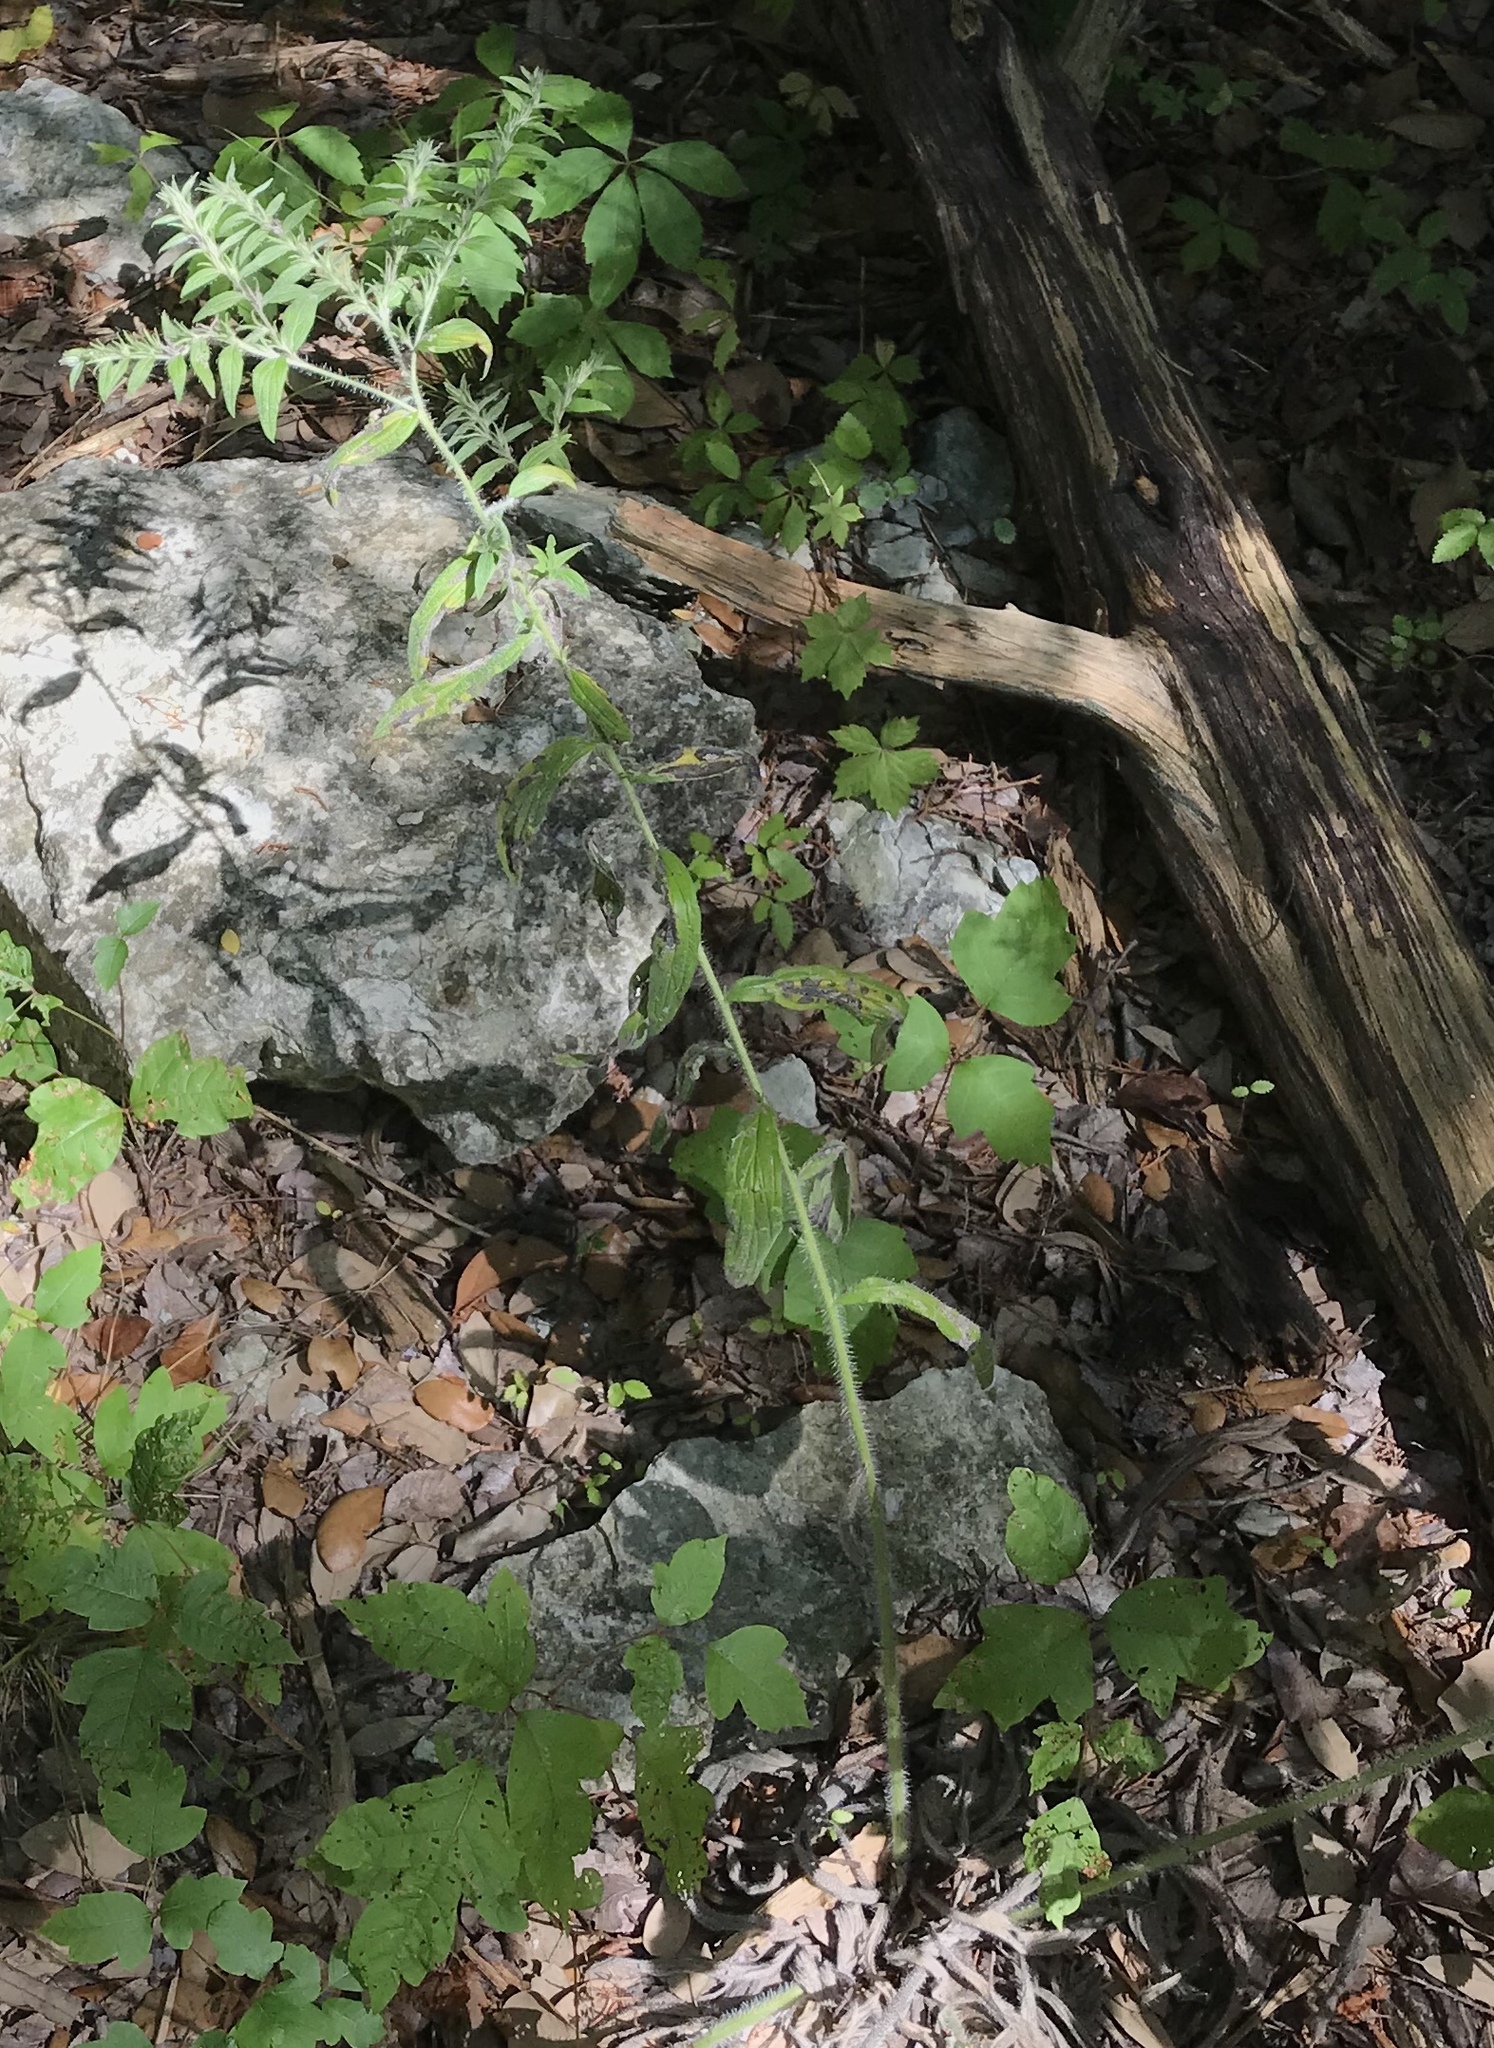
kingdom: Plantae
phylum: Tracheophyta
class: Magnoliopsida
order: Boraginales
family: Boraginaceae
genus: Lithospermum
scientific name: Lithospermum caroliniense
